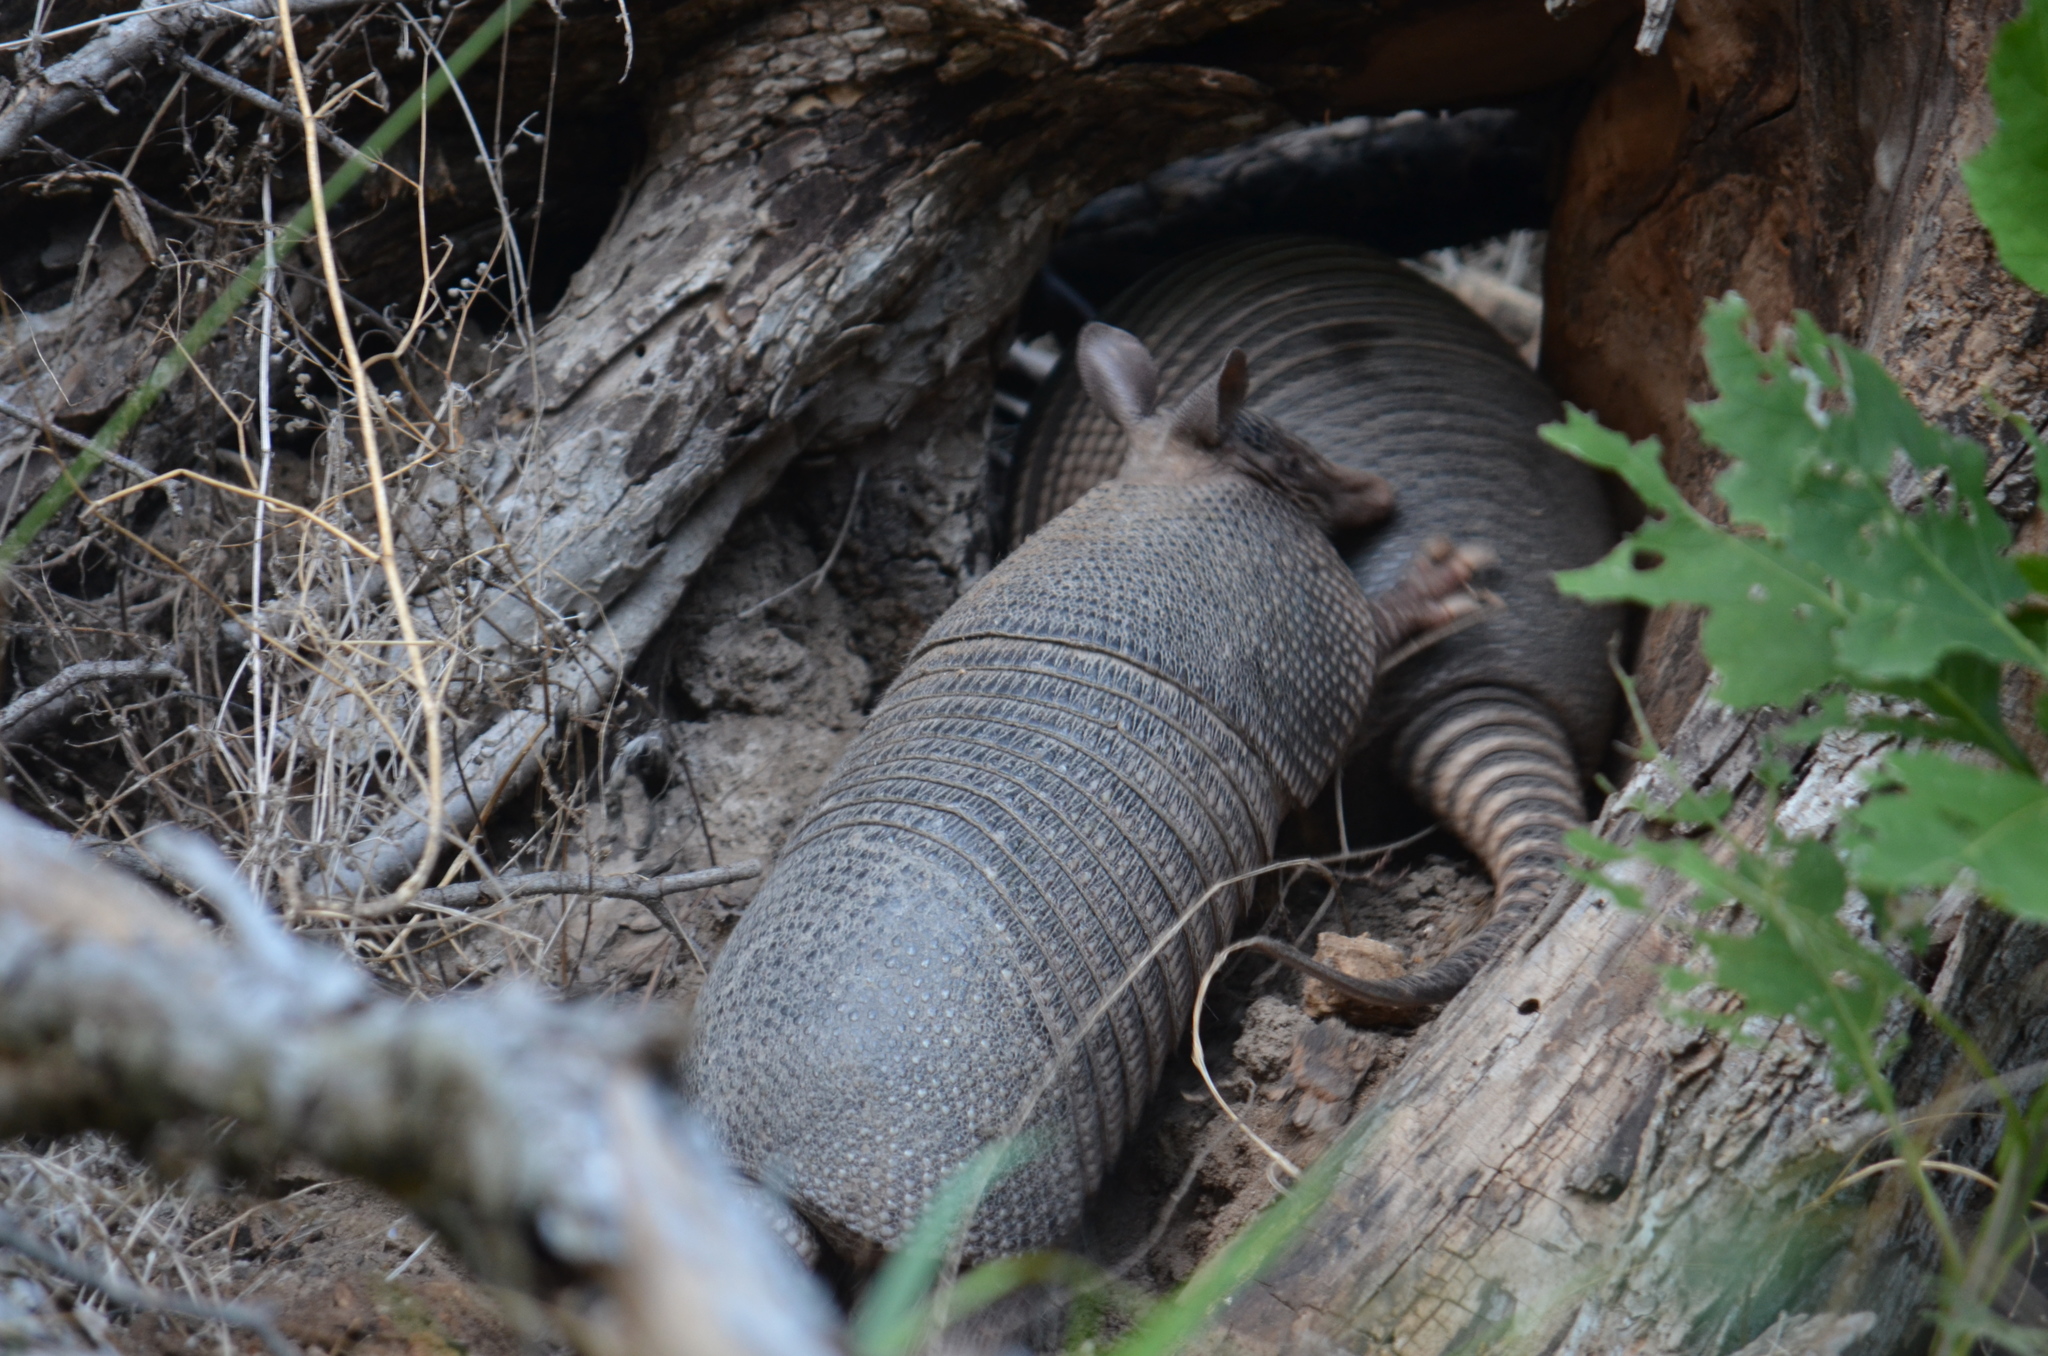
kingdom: Animalia
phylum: Chordata
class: Mammalia
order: Cingulata
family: Dasypodidae
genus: Dasypus
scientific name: Dasypus novemcinctus
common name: Nine-banded armadillo
